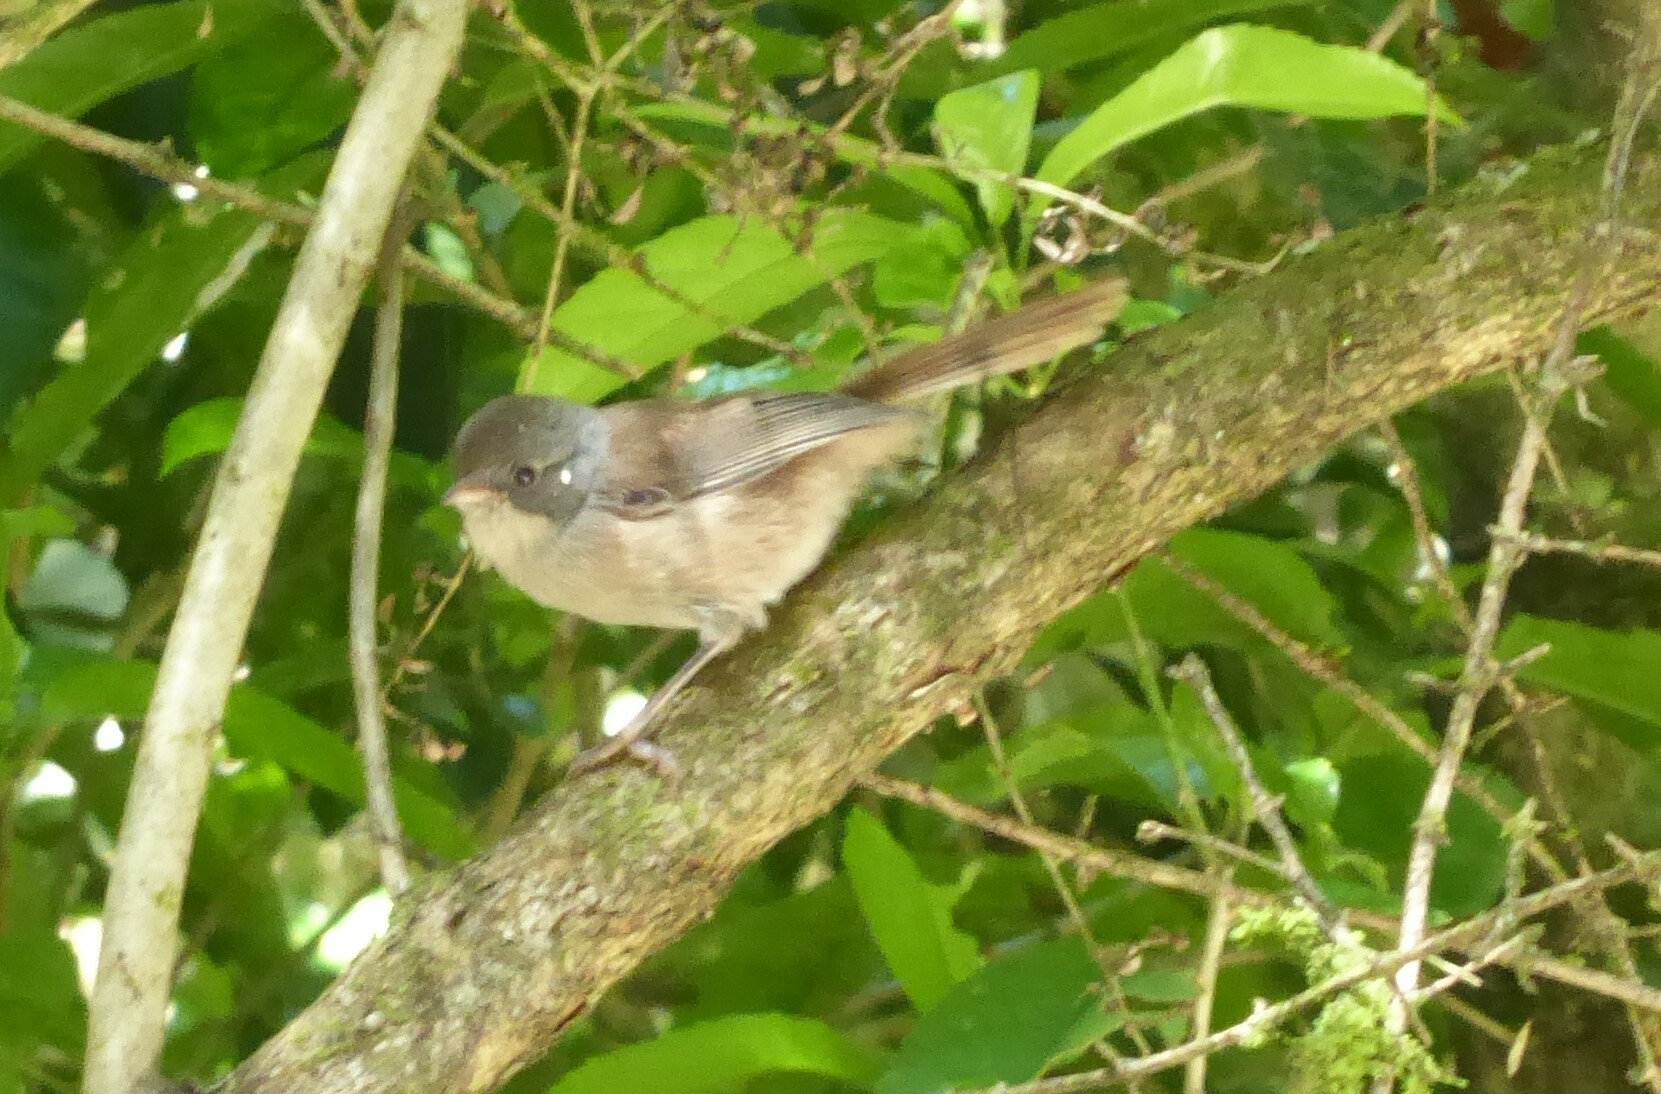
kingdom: Animalia
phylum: Chordata
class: Aves
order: Passeriformes
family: Acanthizidae
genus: Finschia
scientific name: Finschia novaeseelandiae
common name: Pipipi
